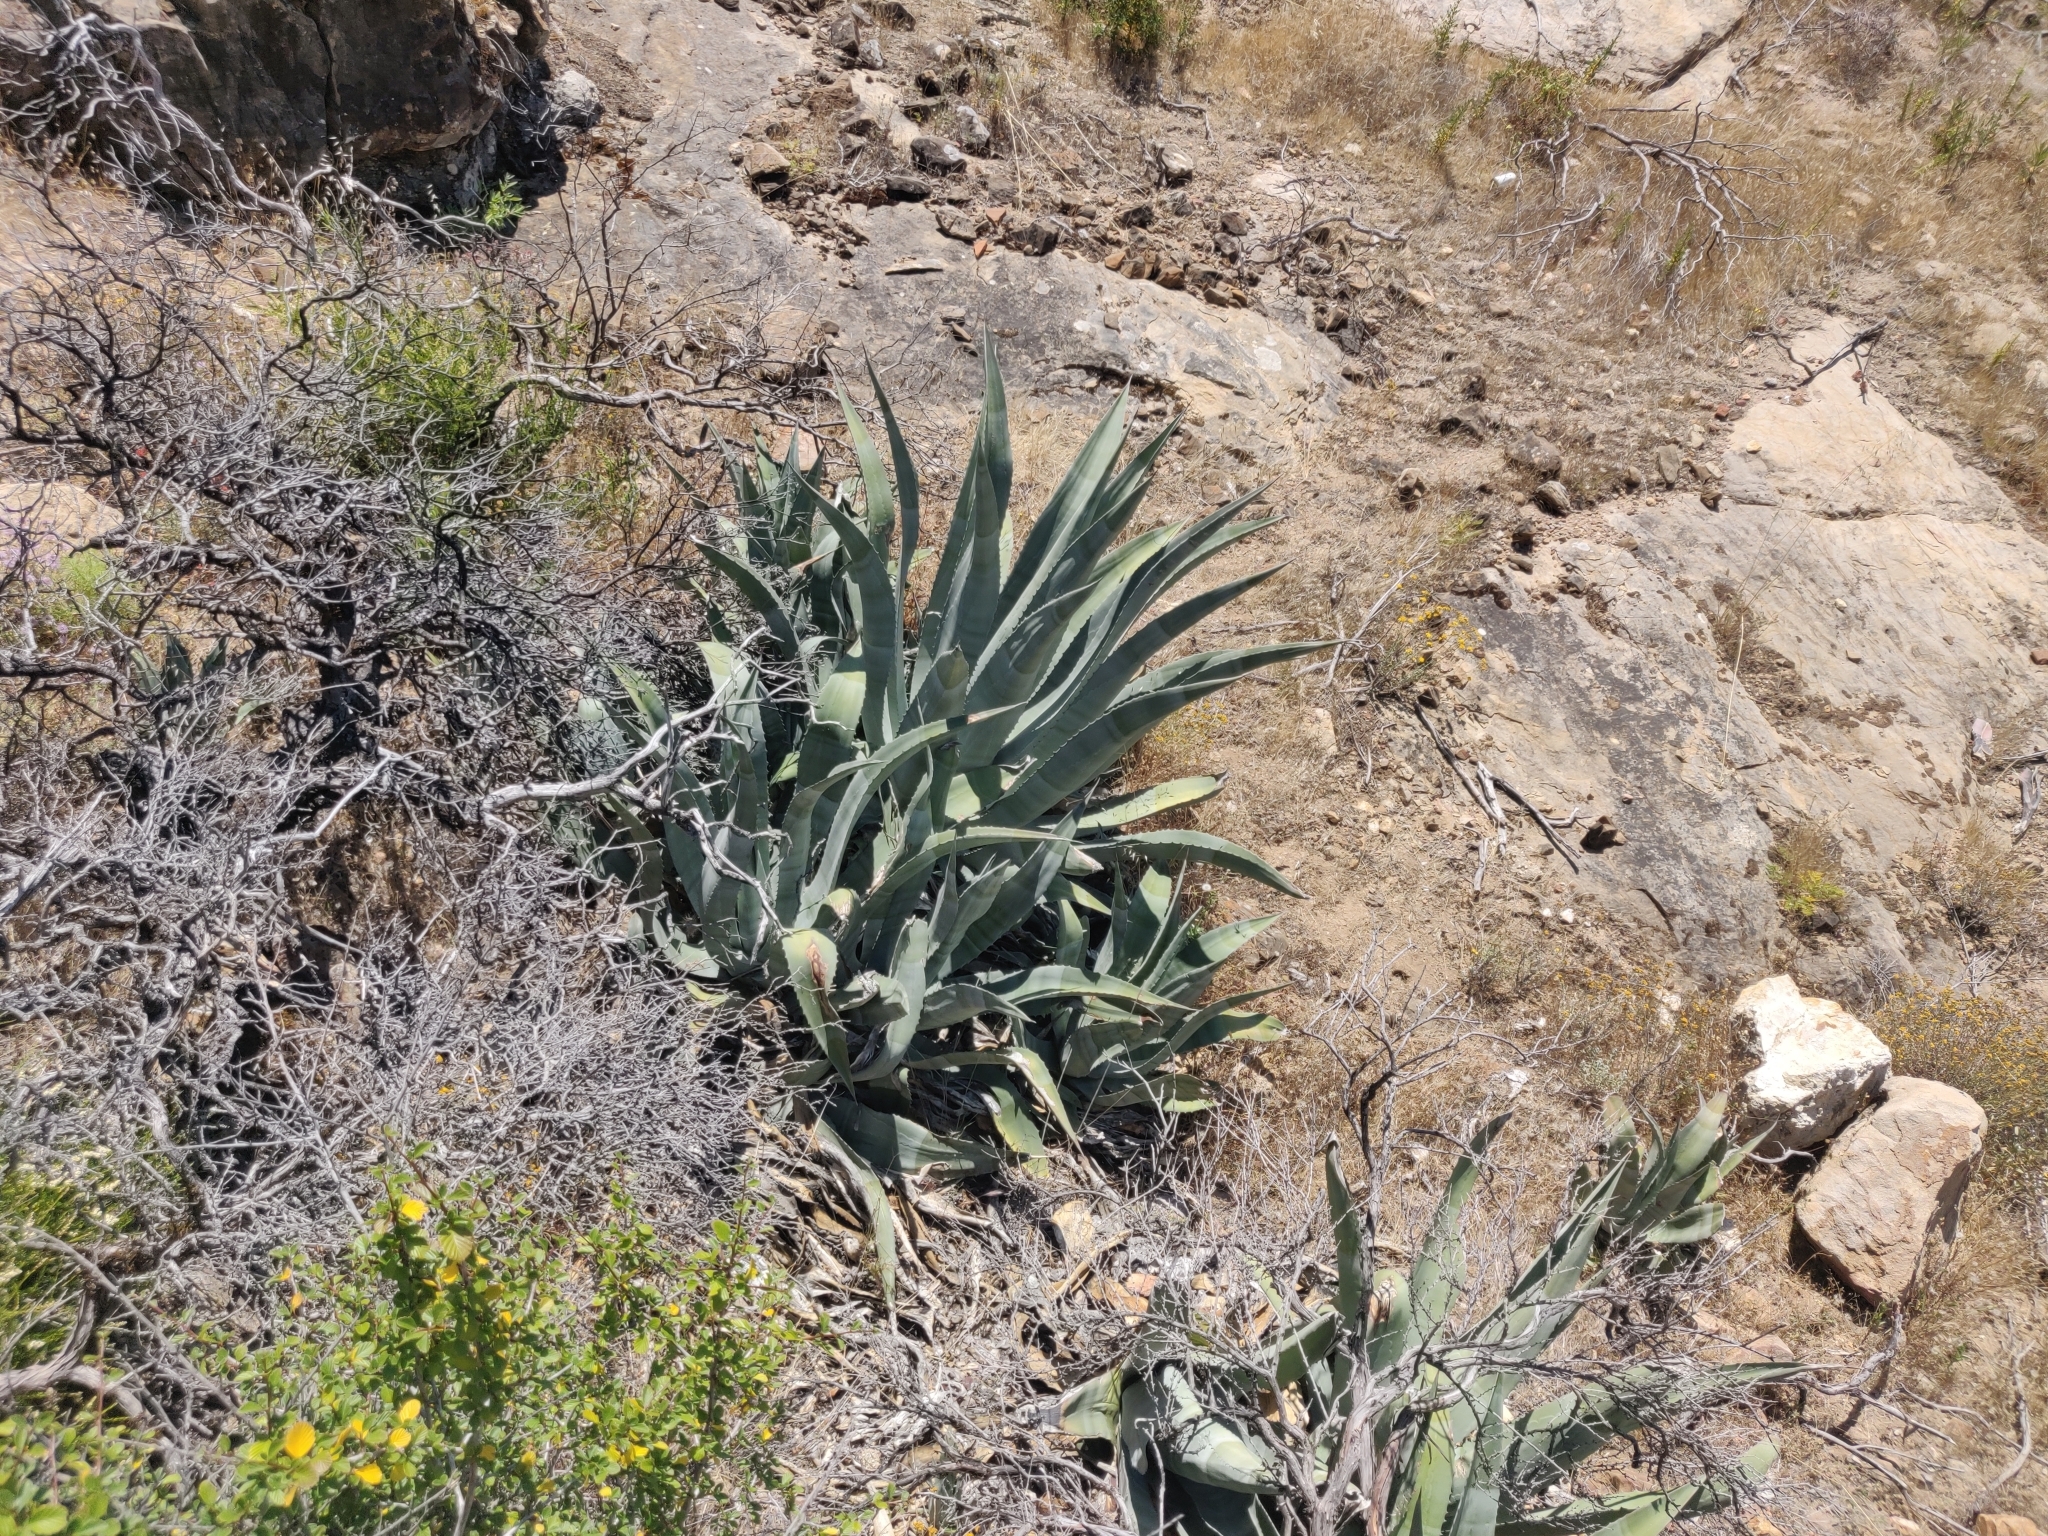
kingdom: Plantae
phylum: Tracheophyta
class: Liliopsida
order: Asparagales
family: Asparagaceae
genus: Agave
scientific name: Agave americana
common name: Centuryplant
